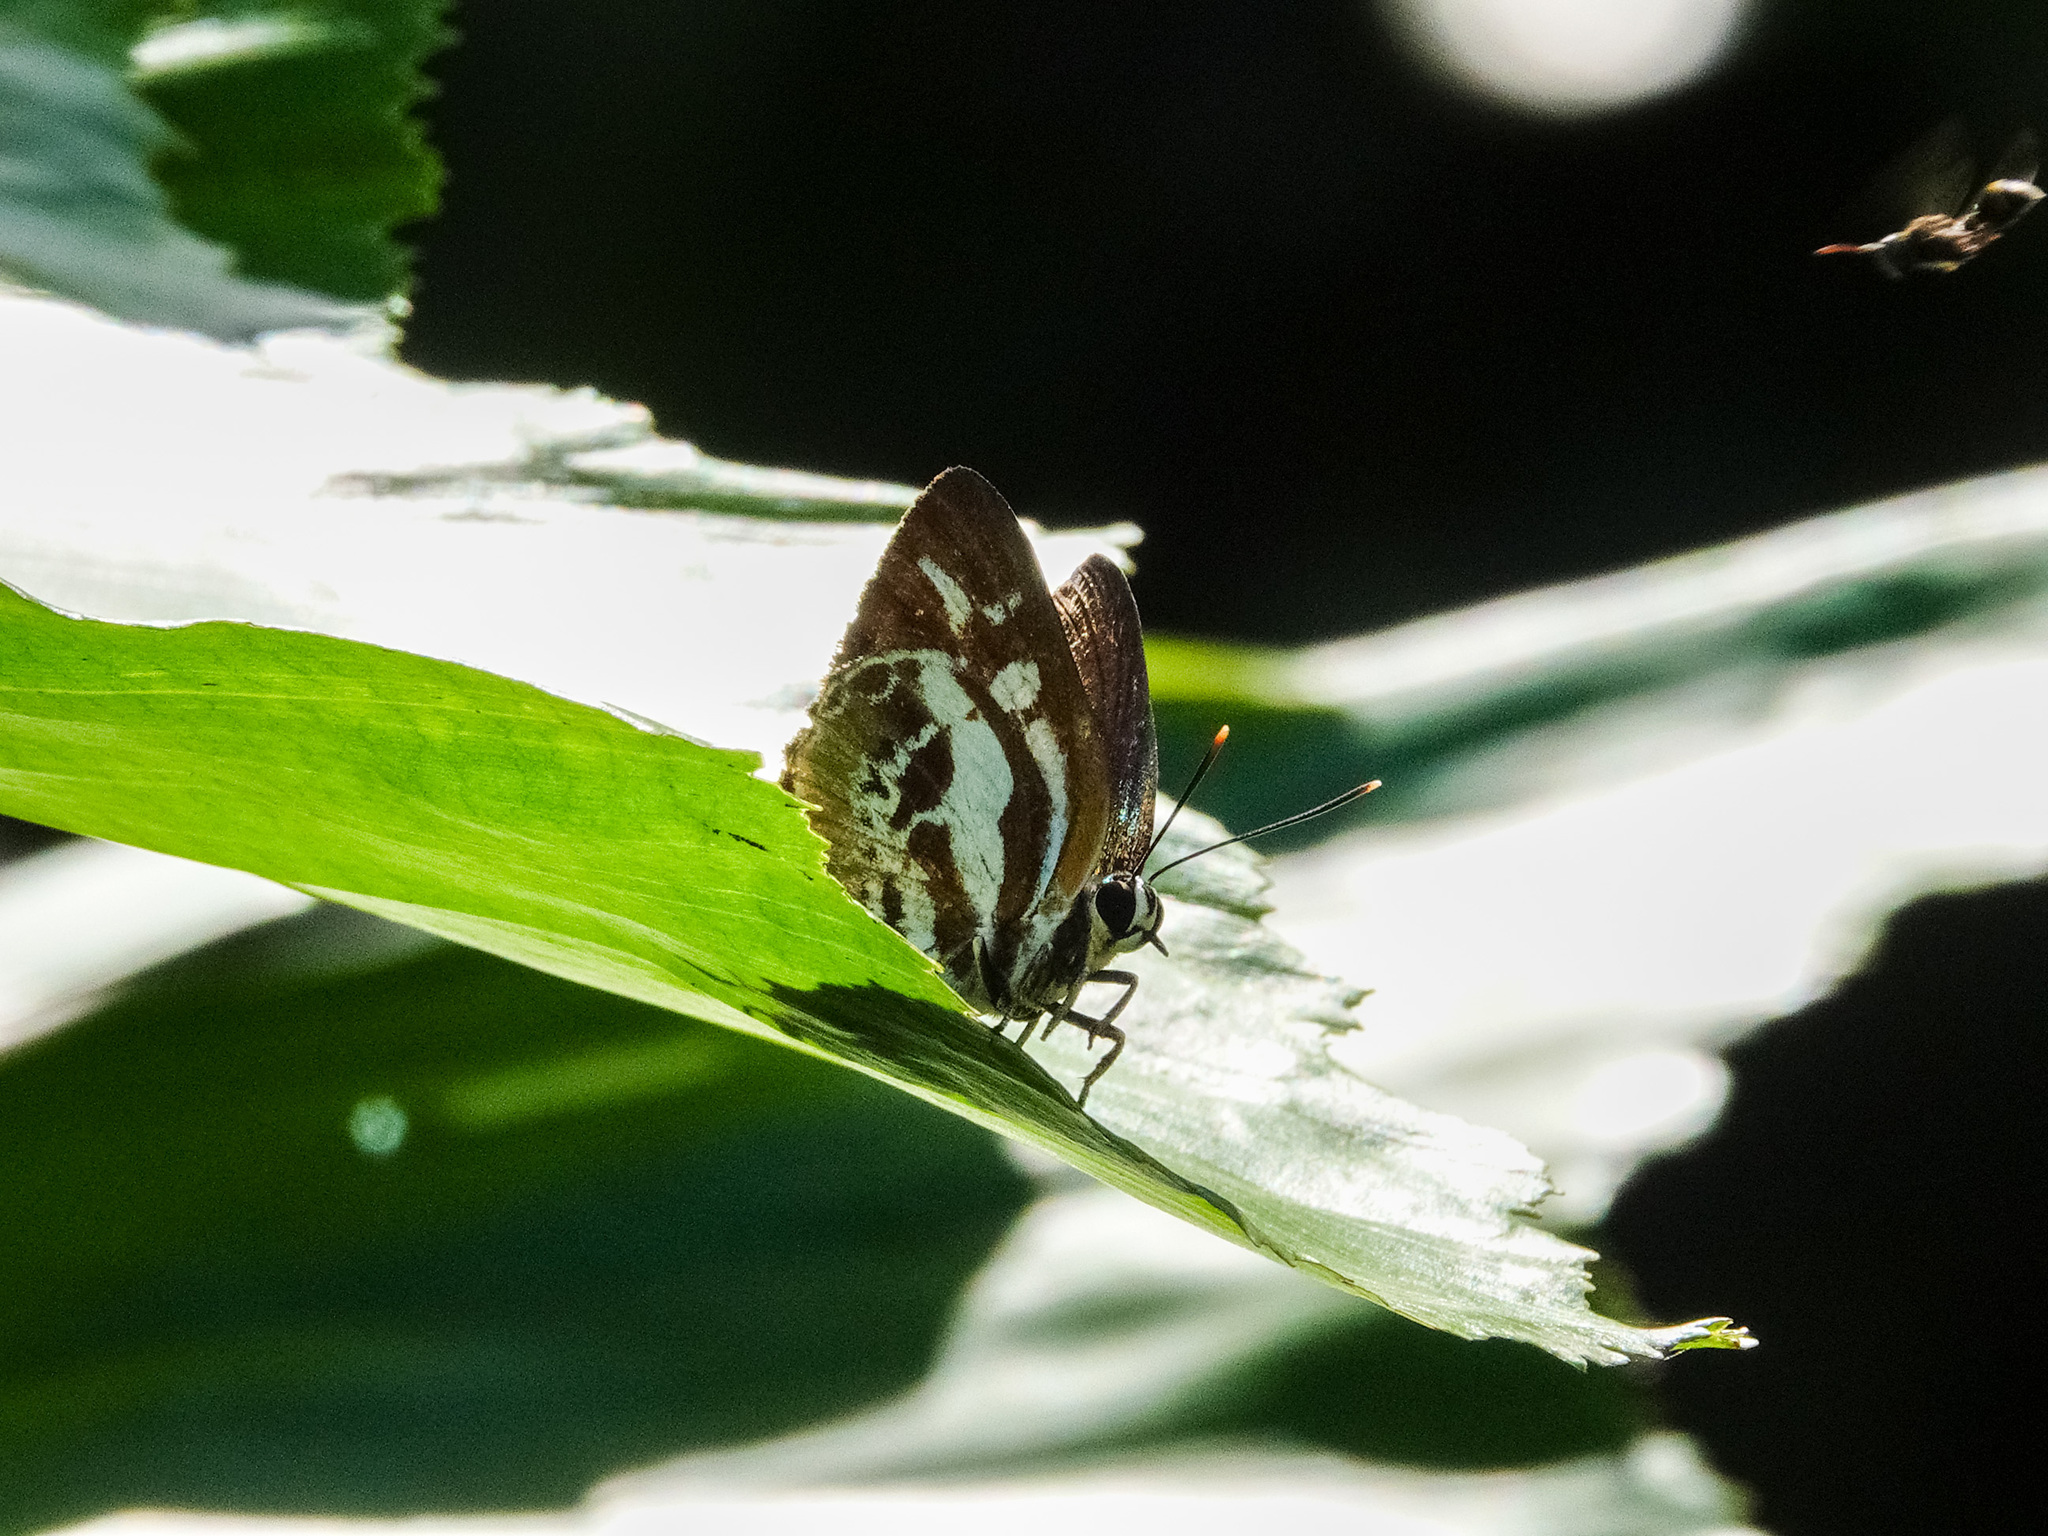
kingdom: Animalia
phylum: Arthropoda
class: Insecta
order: Lepidoptera
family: Lycaenidae
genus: Iraota
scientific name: Iraota rochana
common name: Scarce silverstreak blue
